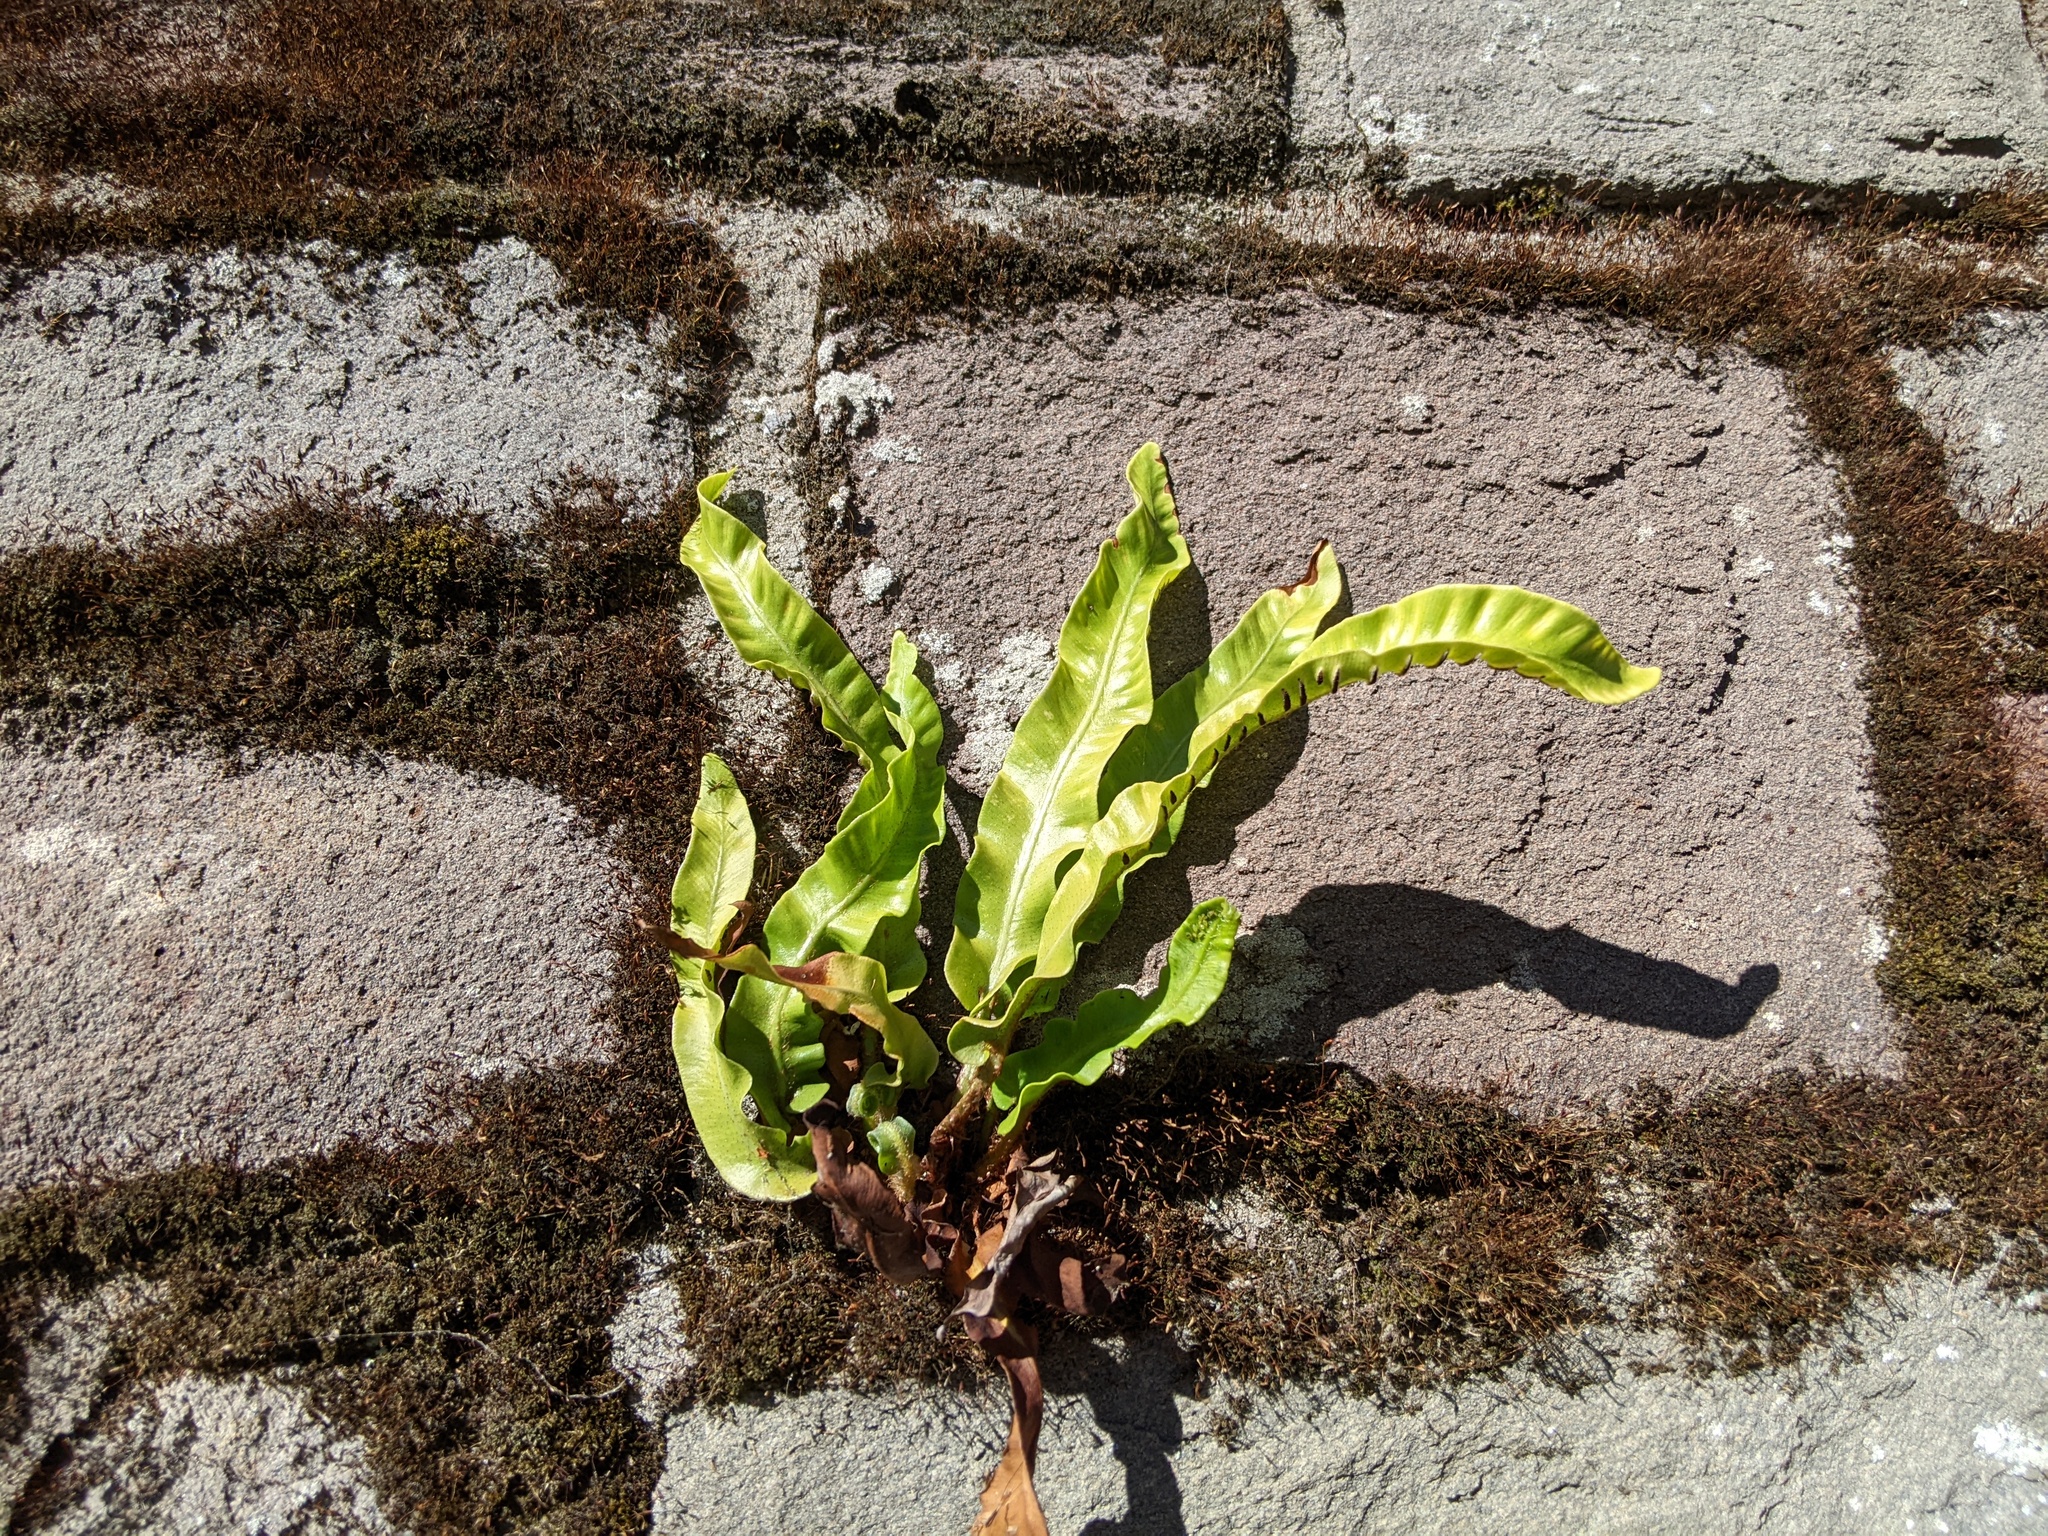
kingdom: Plantae
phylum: Tracheophyta
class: Polypodiopsida
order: Polypodiales
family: Aspleniaceae
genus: Asplenium
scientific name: Asplenium scolopendrium
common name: Hart's-tongue fern
